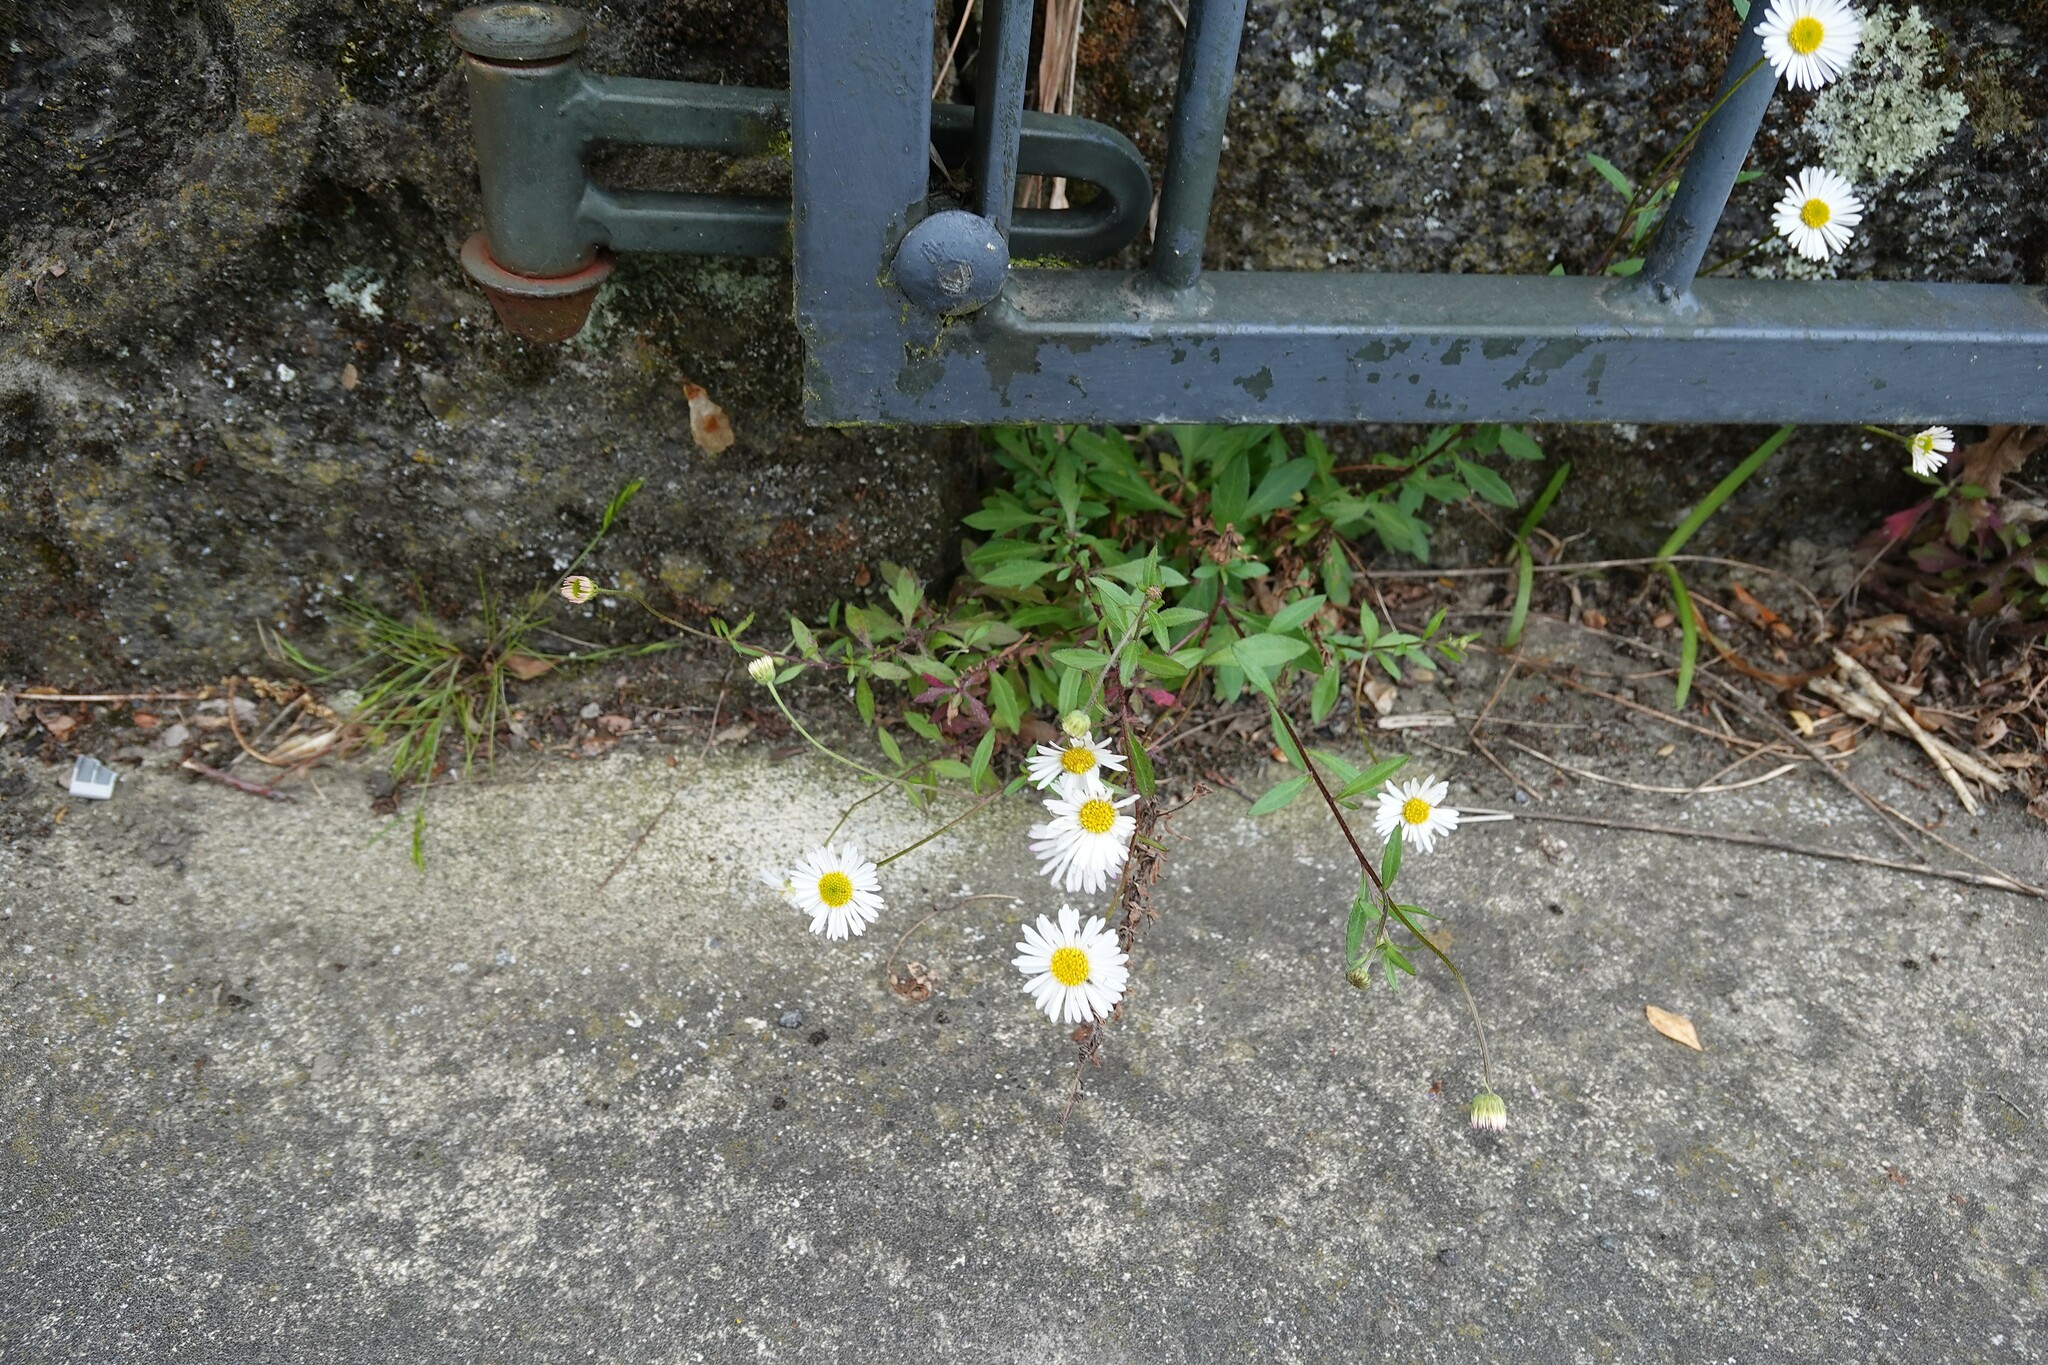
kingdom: Plantae
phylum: Tracheophyta
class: Magnoliopsida
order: Asterales
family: Asteraceae
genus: Erigeron
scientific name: Erigeron karvinskianus
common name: Mexican fleabane
